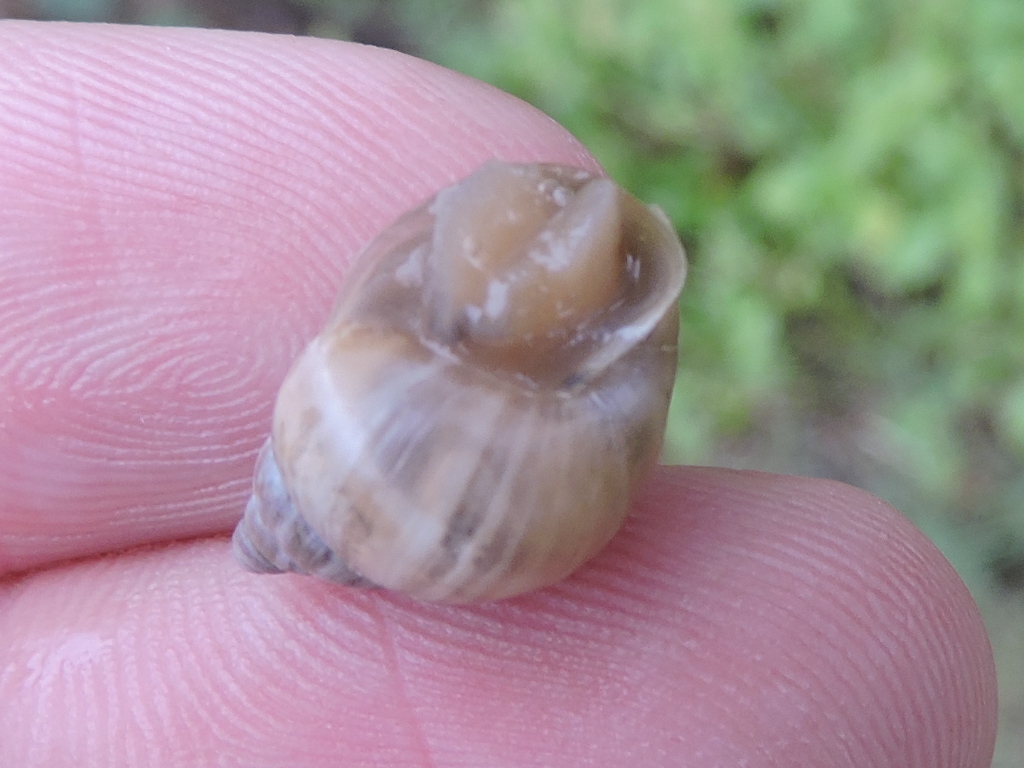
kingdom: Animalia
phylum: Mollusca
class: Gastropoda
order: Stylommatophora
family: Bulimulidae
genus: Rabdotus
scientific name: Rabdotus dealbatus
